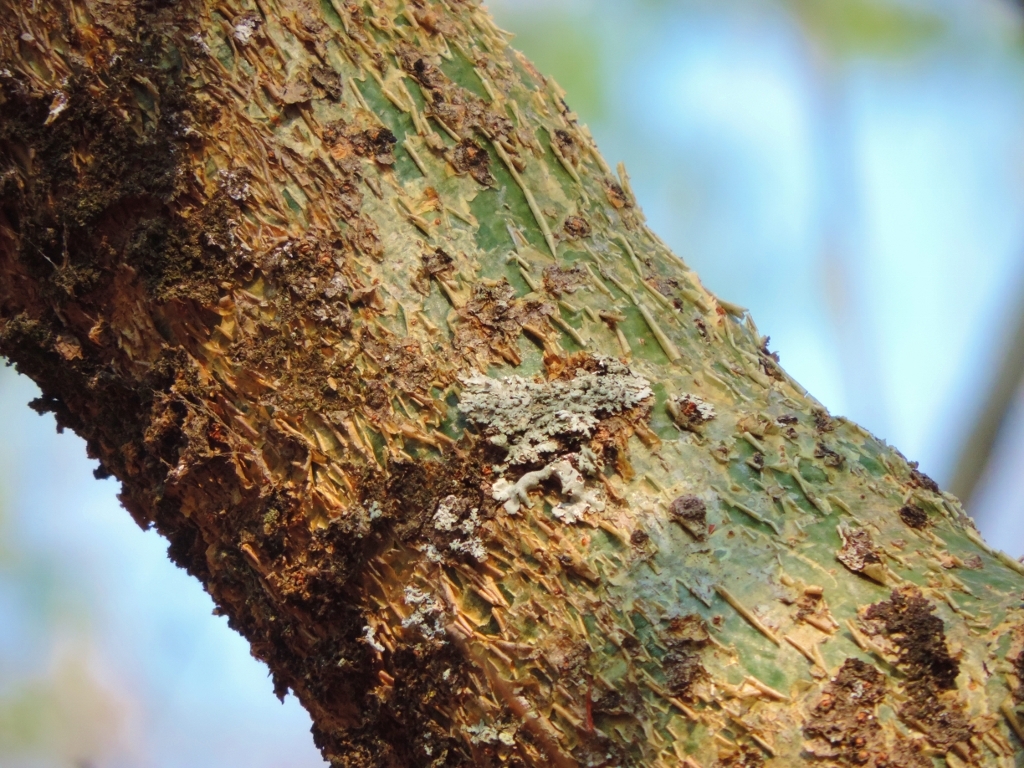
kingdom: Plantae
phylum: Tracheophyta
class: Magnoliopsida
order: Sapindales
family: Burseraceae
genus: Commiphora
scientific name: Commiphora africana
